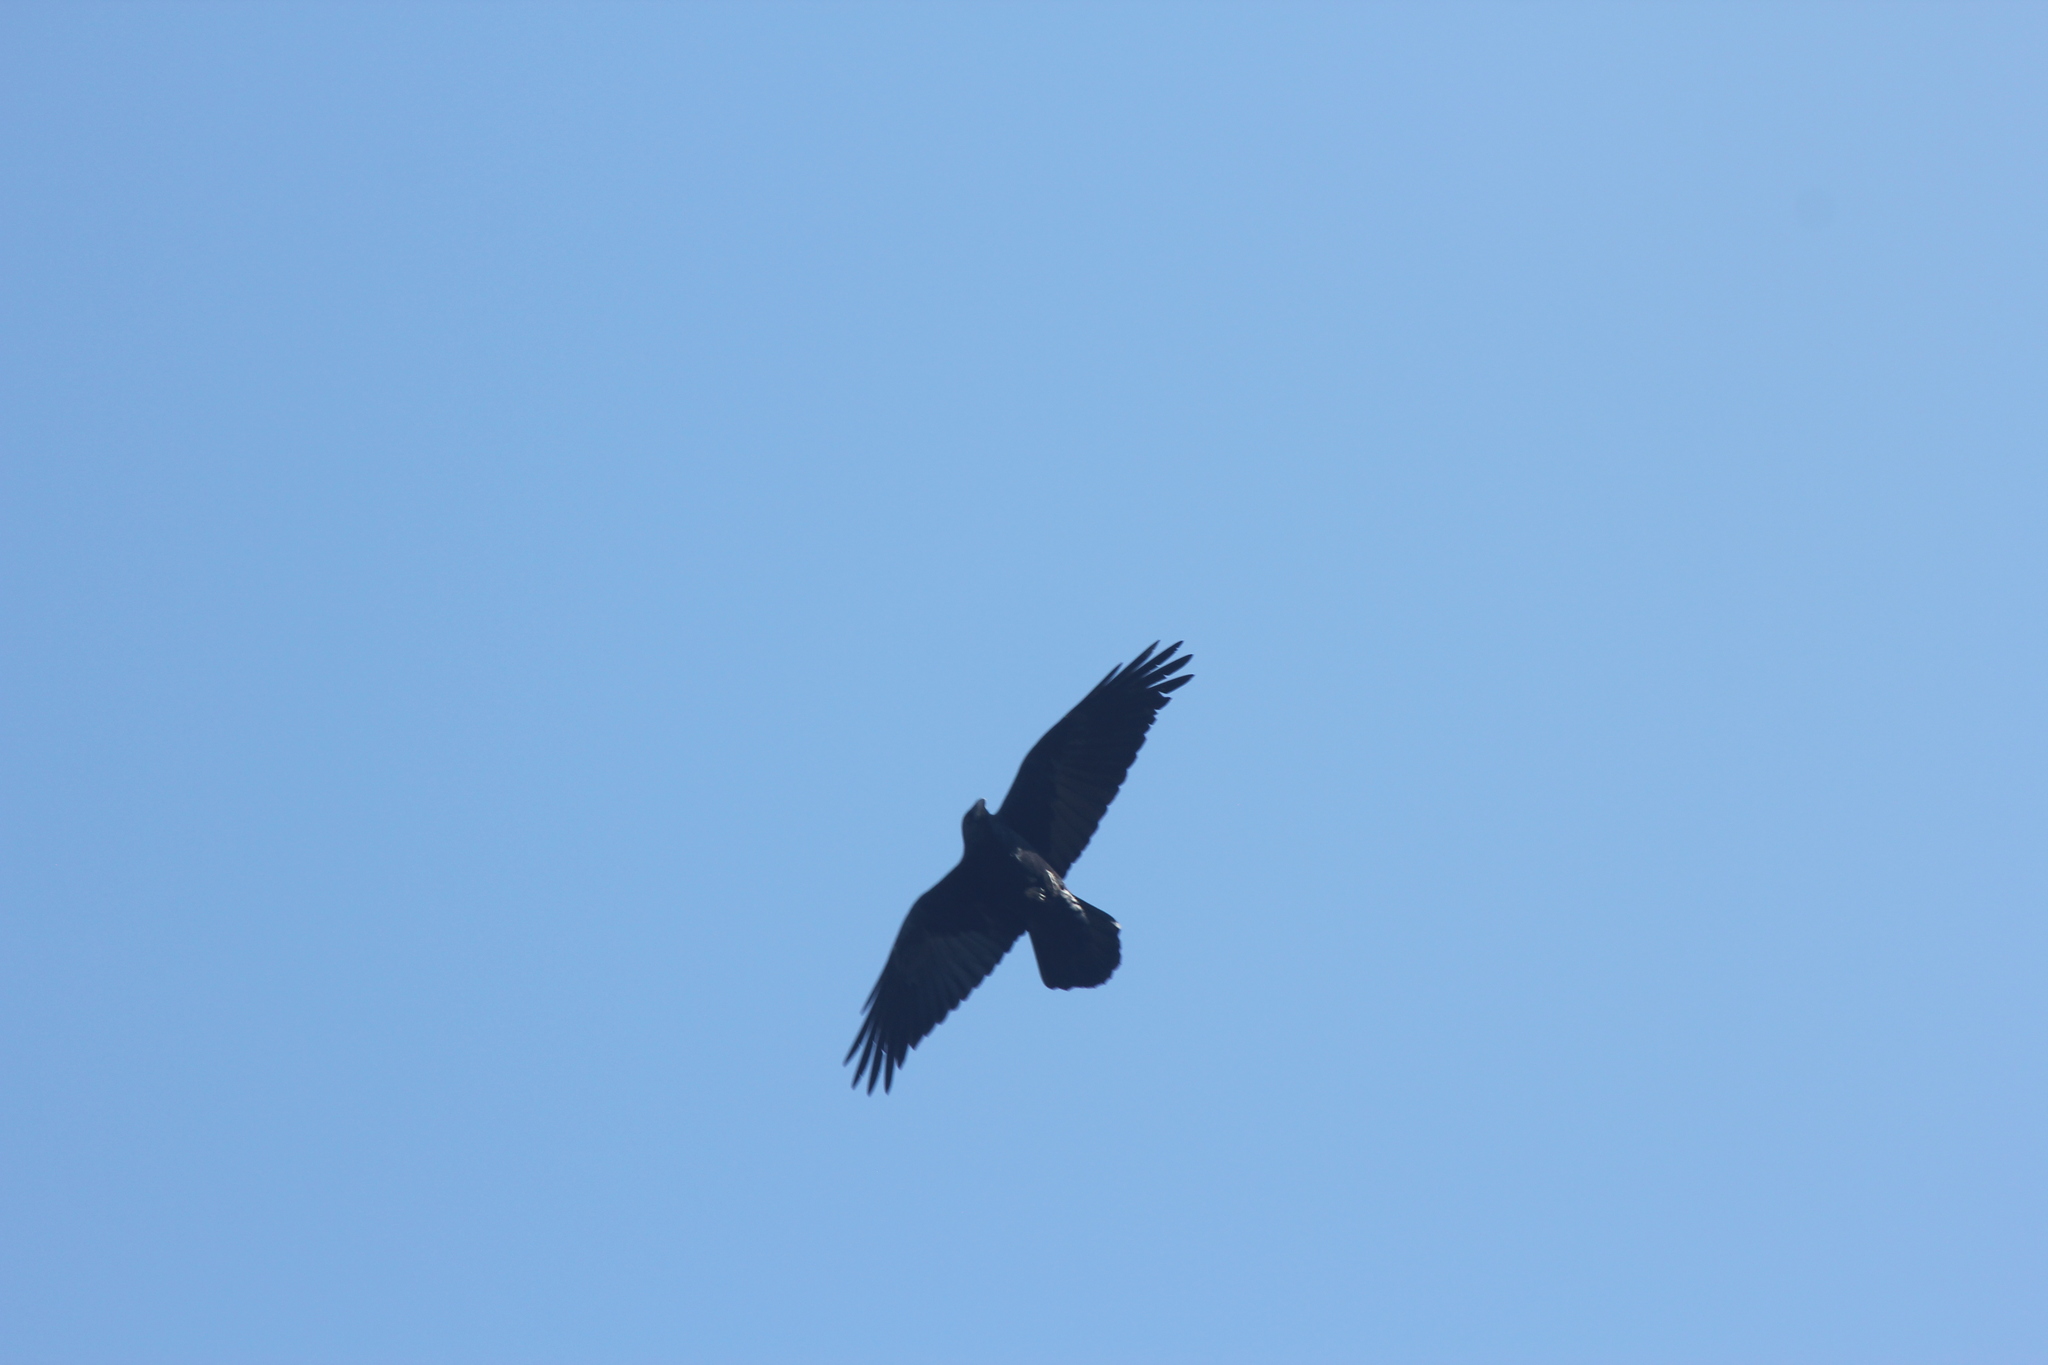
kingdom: Animalia
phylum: Chordata
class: Aves
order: Passeriformes
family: Corvidae
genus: Corvus
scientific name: Corvus corax
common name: Common raven
